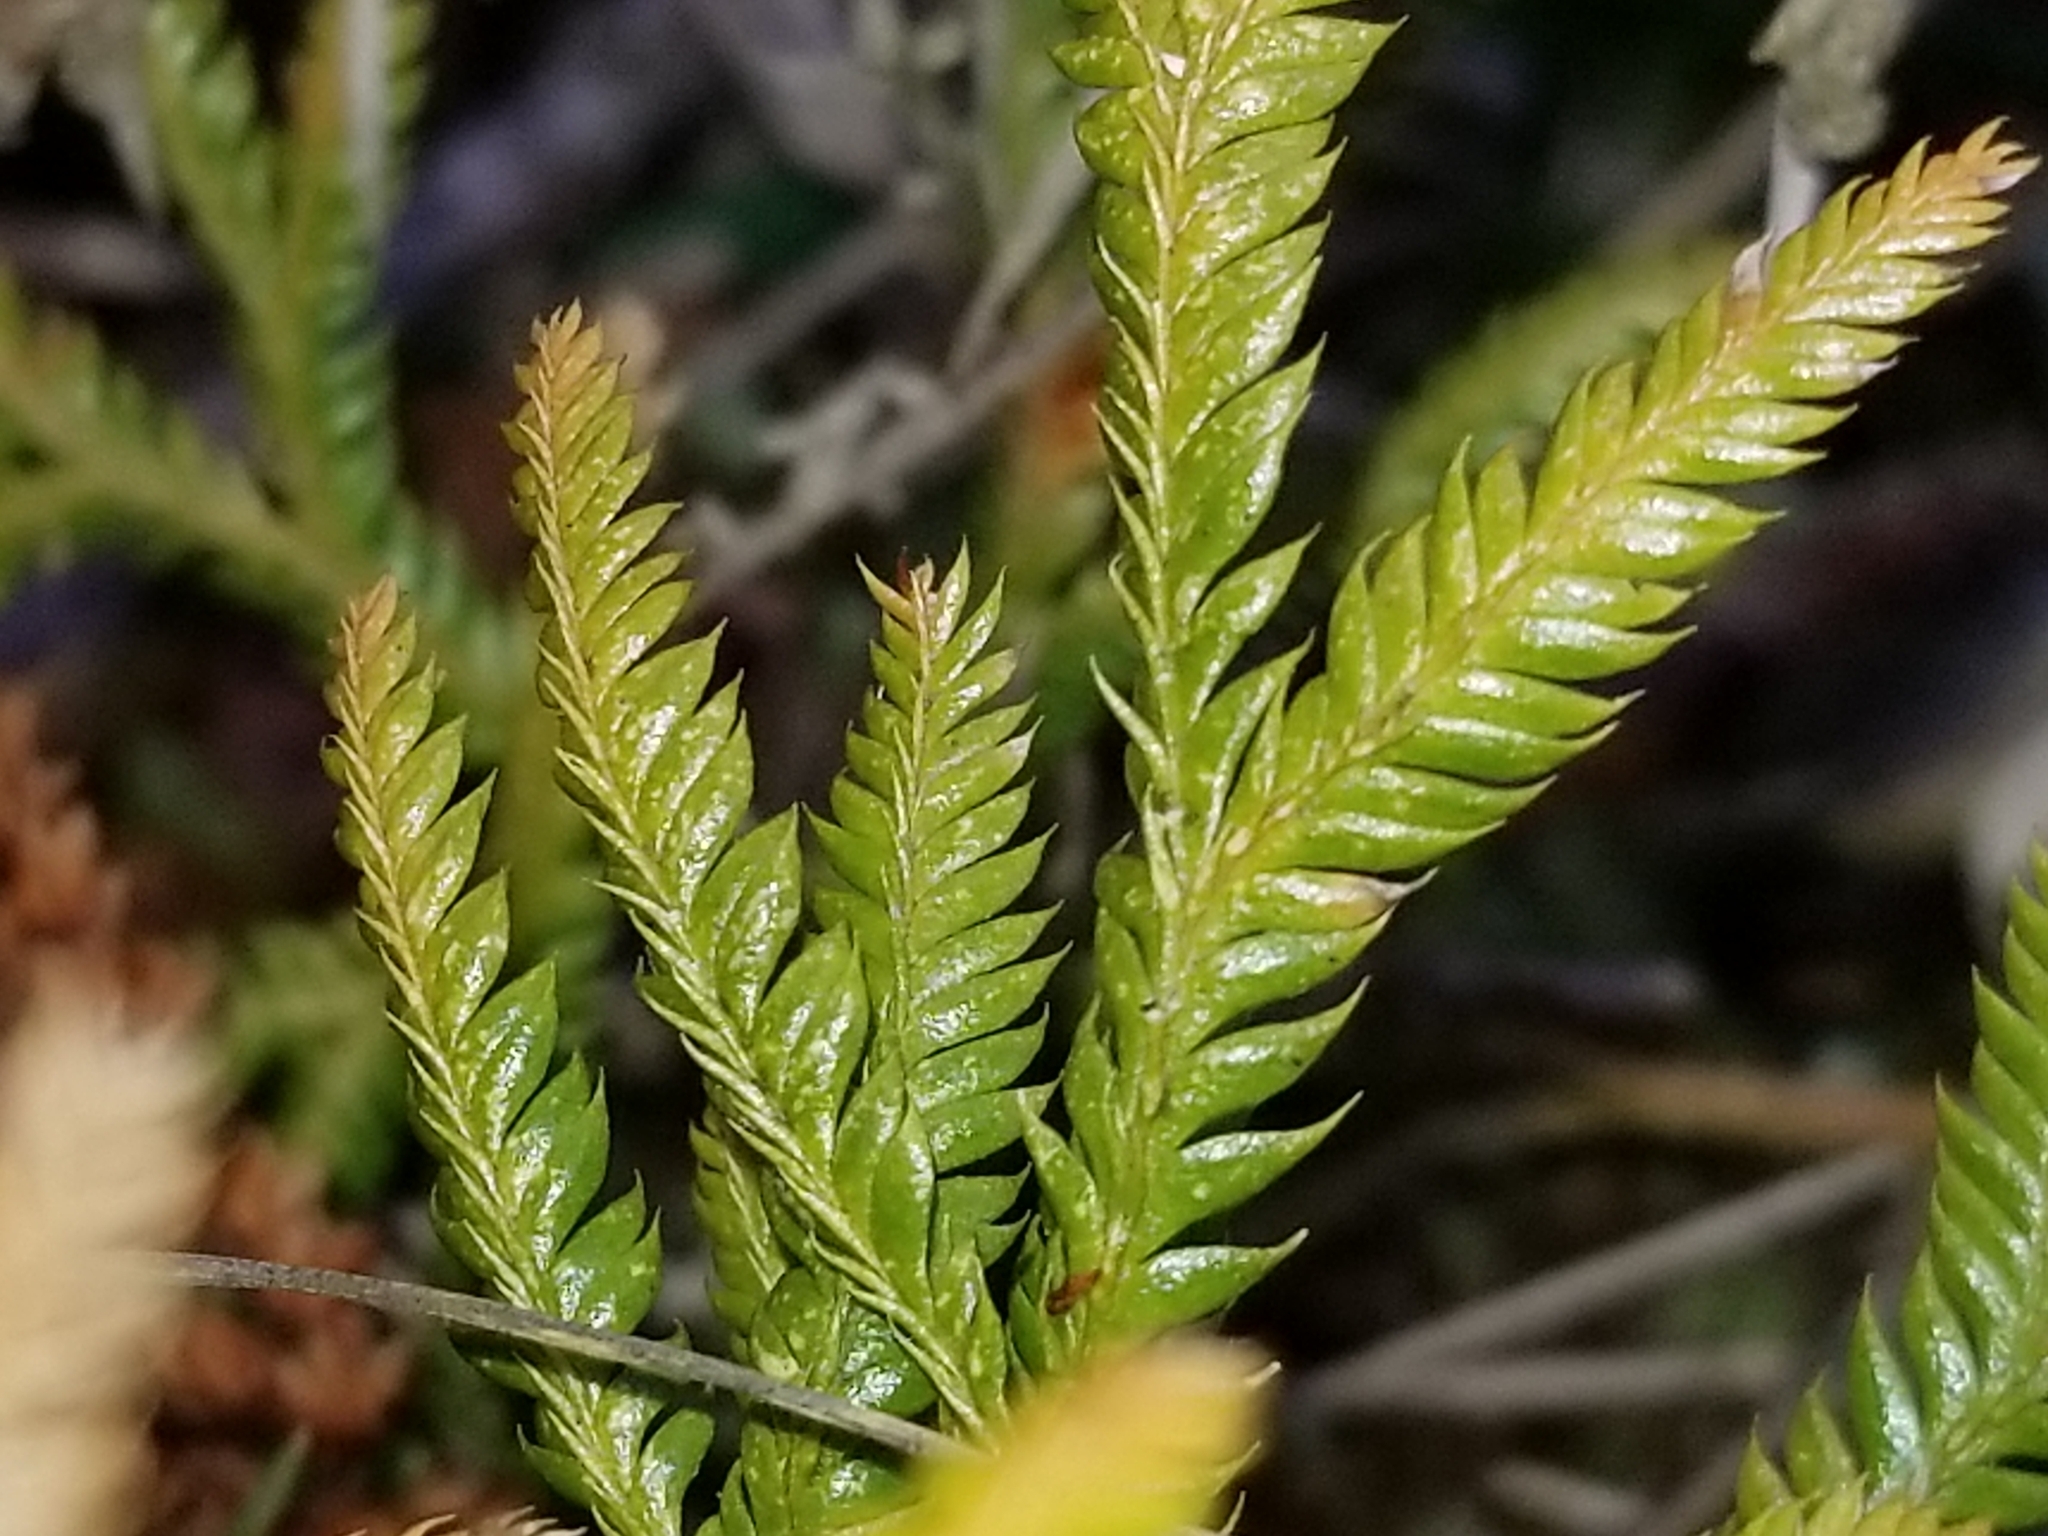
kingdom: Plantae
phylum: Tracheophyta
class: Lycopodiopsida
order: Lycopodiales
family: Lycopodiaceae
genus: Lycopodium
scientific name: Lycopodium volubile
